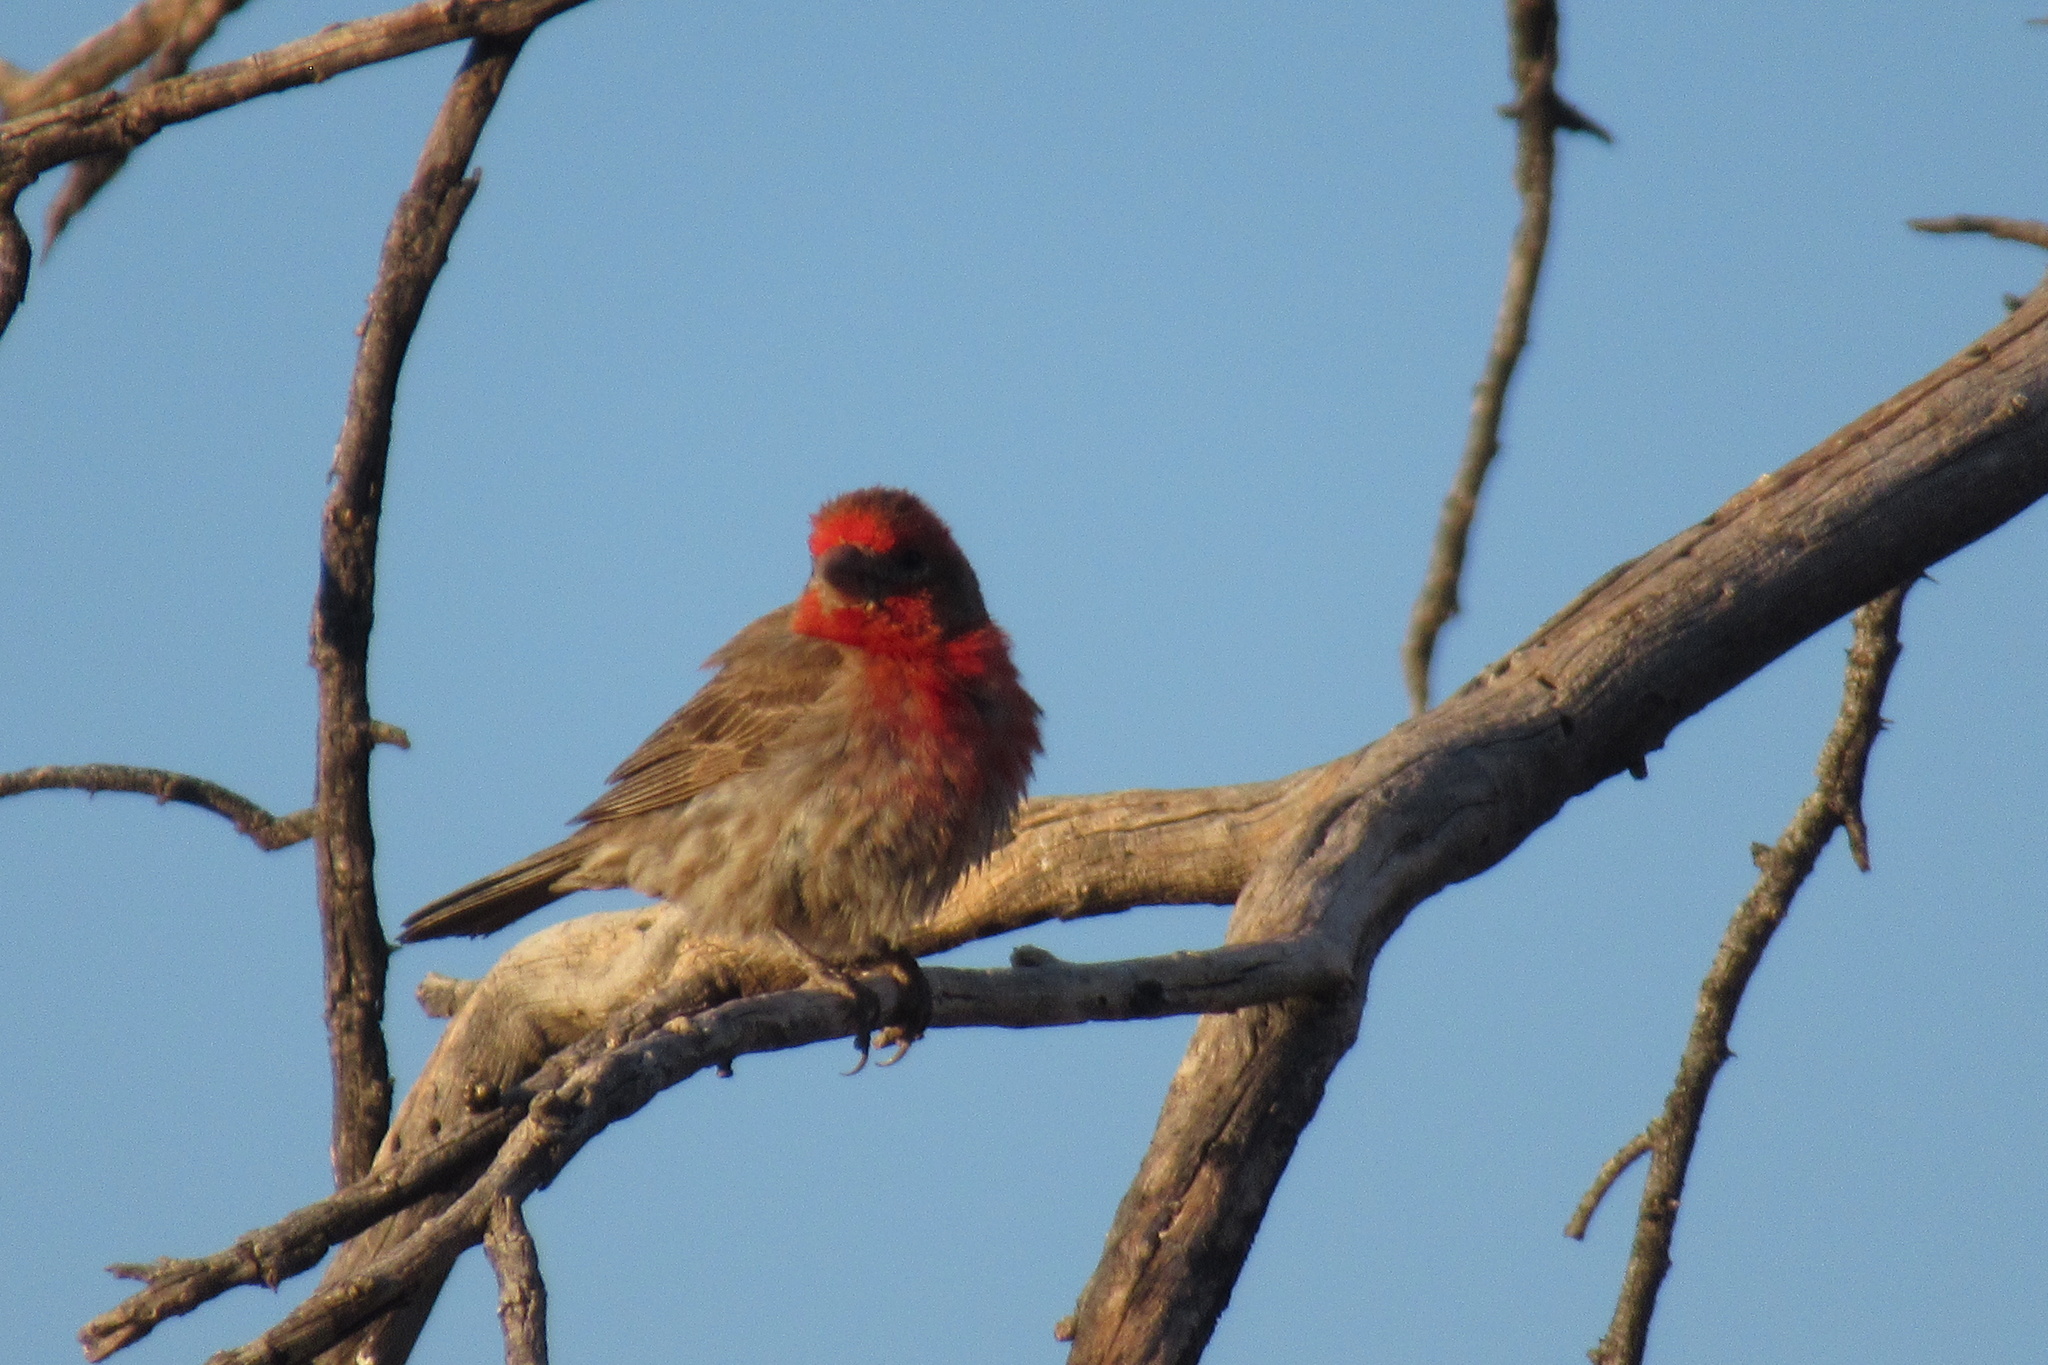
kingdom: Animalia
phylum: Chordata
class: Aves
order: Passeriformes
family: Fringillidae
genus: Haemorhous
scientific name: Haemorhous mexicanus
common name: House finch
